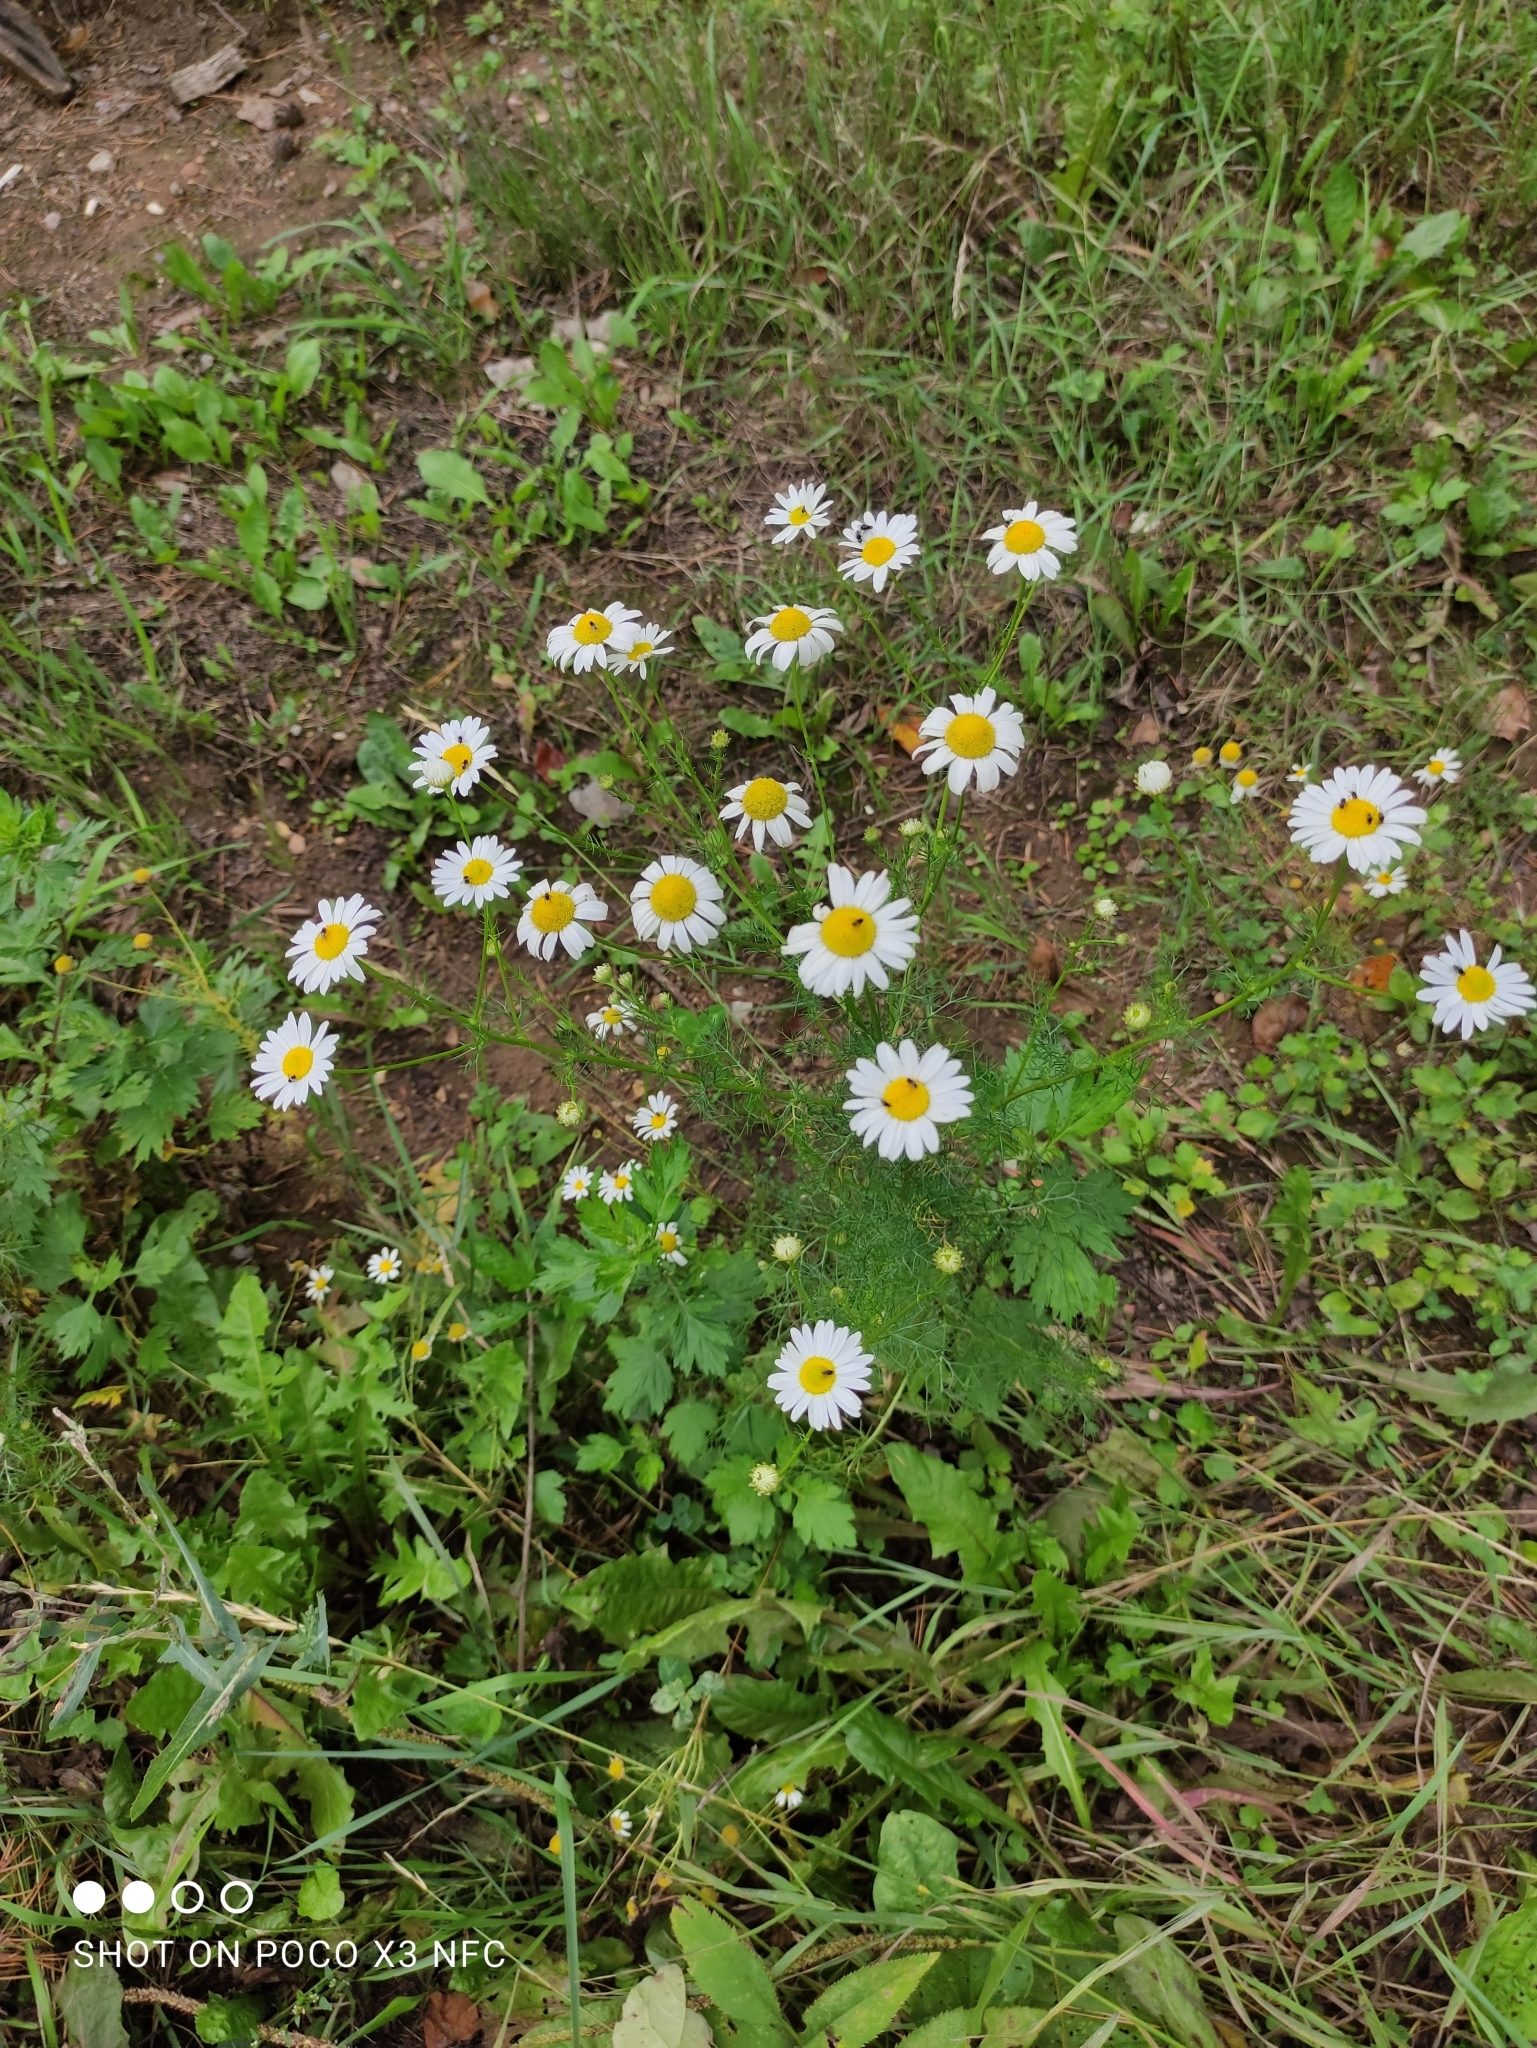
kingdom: Plantae
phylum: Tracheophyta
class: Magnoliopsida
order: Asterales
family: Asteraceae
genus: Tripleurospermum
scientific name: Tripleurospermum inodorum
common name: Scentless mayweed
